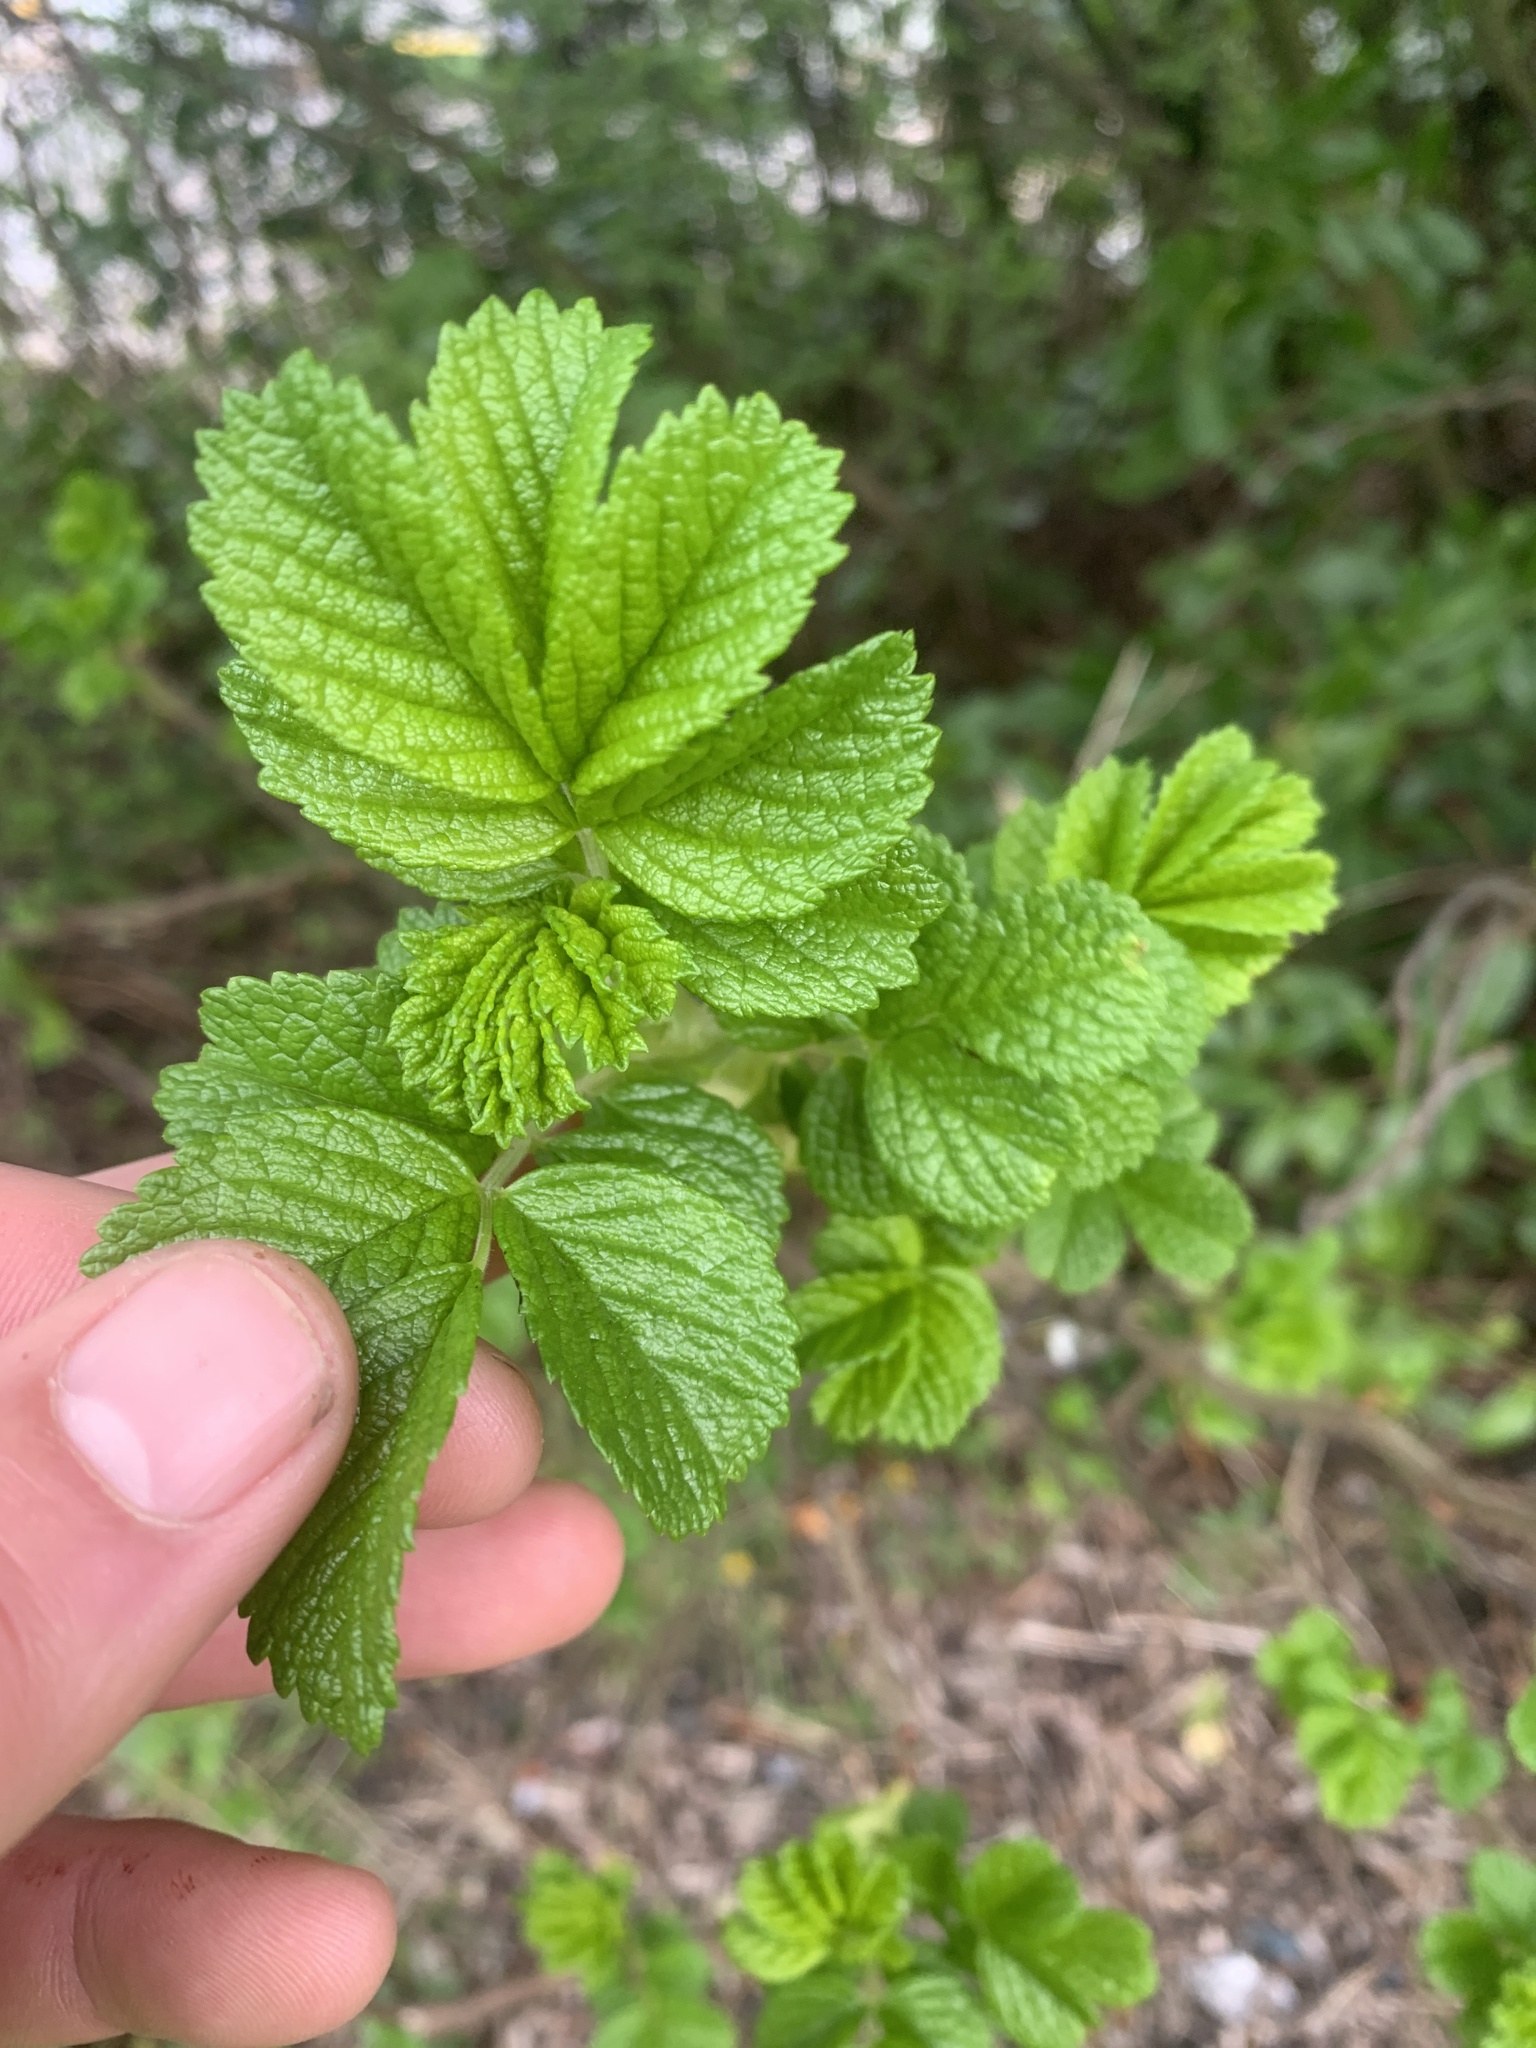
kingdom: Plantae
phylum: Tracheophyta
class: Magnoliopsida
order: Rosales
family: Rosaceae
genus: Rosa
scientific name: Rosa rugosa
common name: Japanese rose
